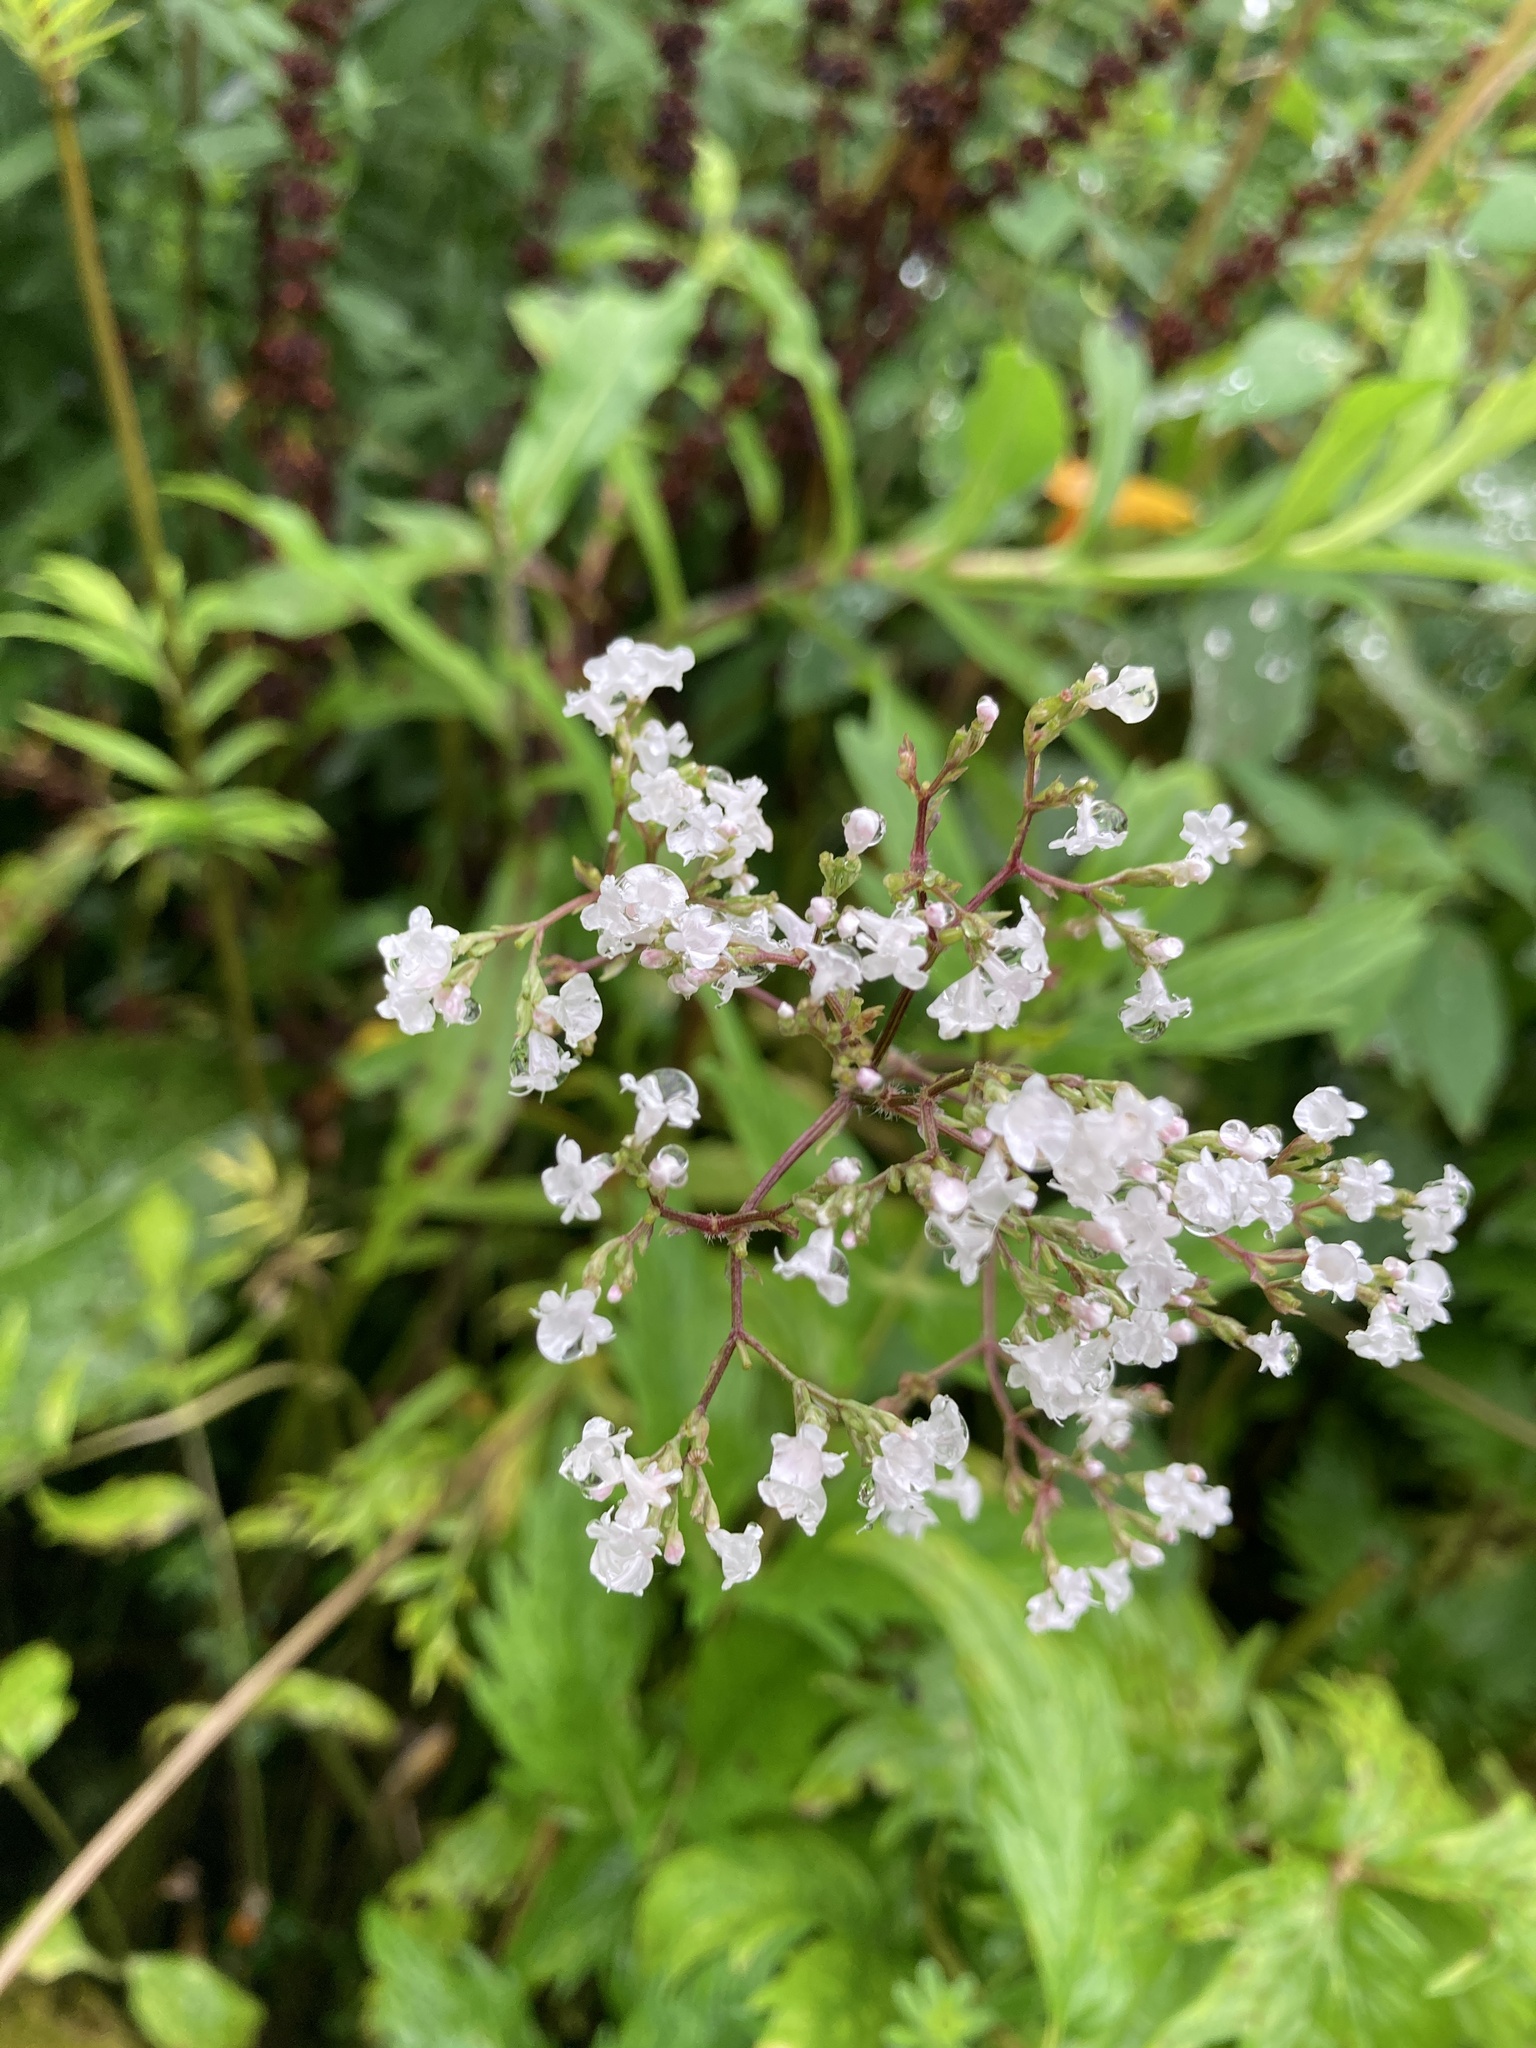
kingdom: Plantae
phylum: Tracheophyta
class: Magnoliopsida
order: Dipsacales
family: Caprifoliaceae
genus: Valeriana
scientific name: Valeriana officinalis
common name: Common valerian
